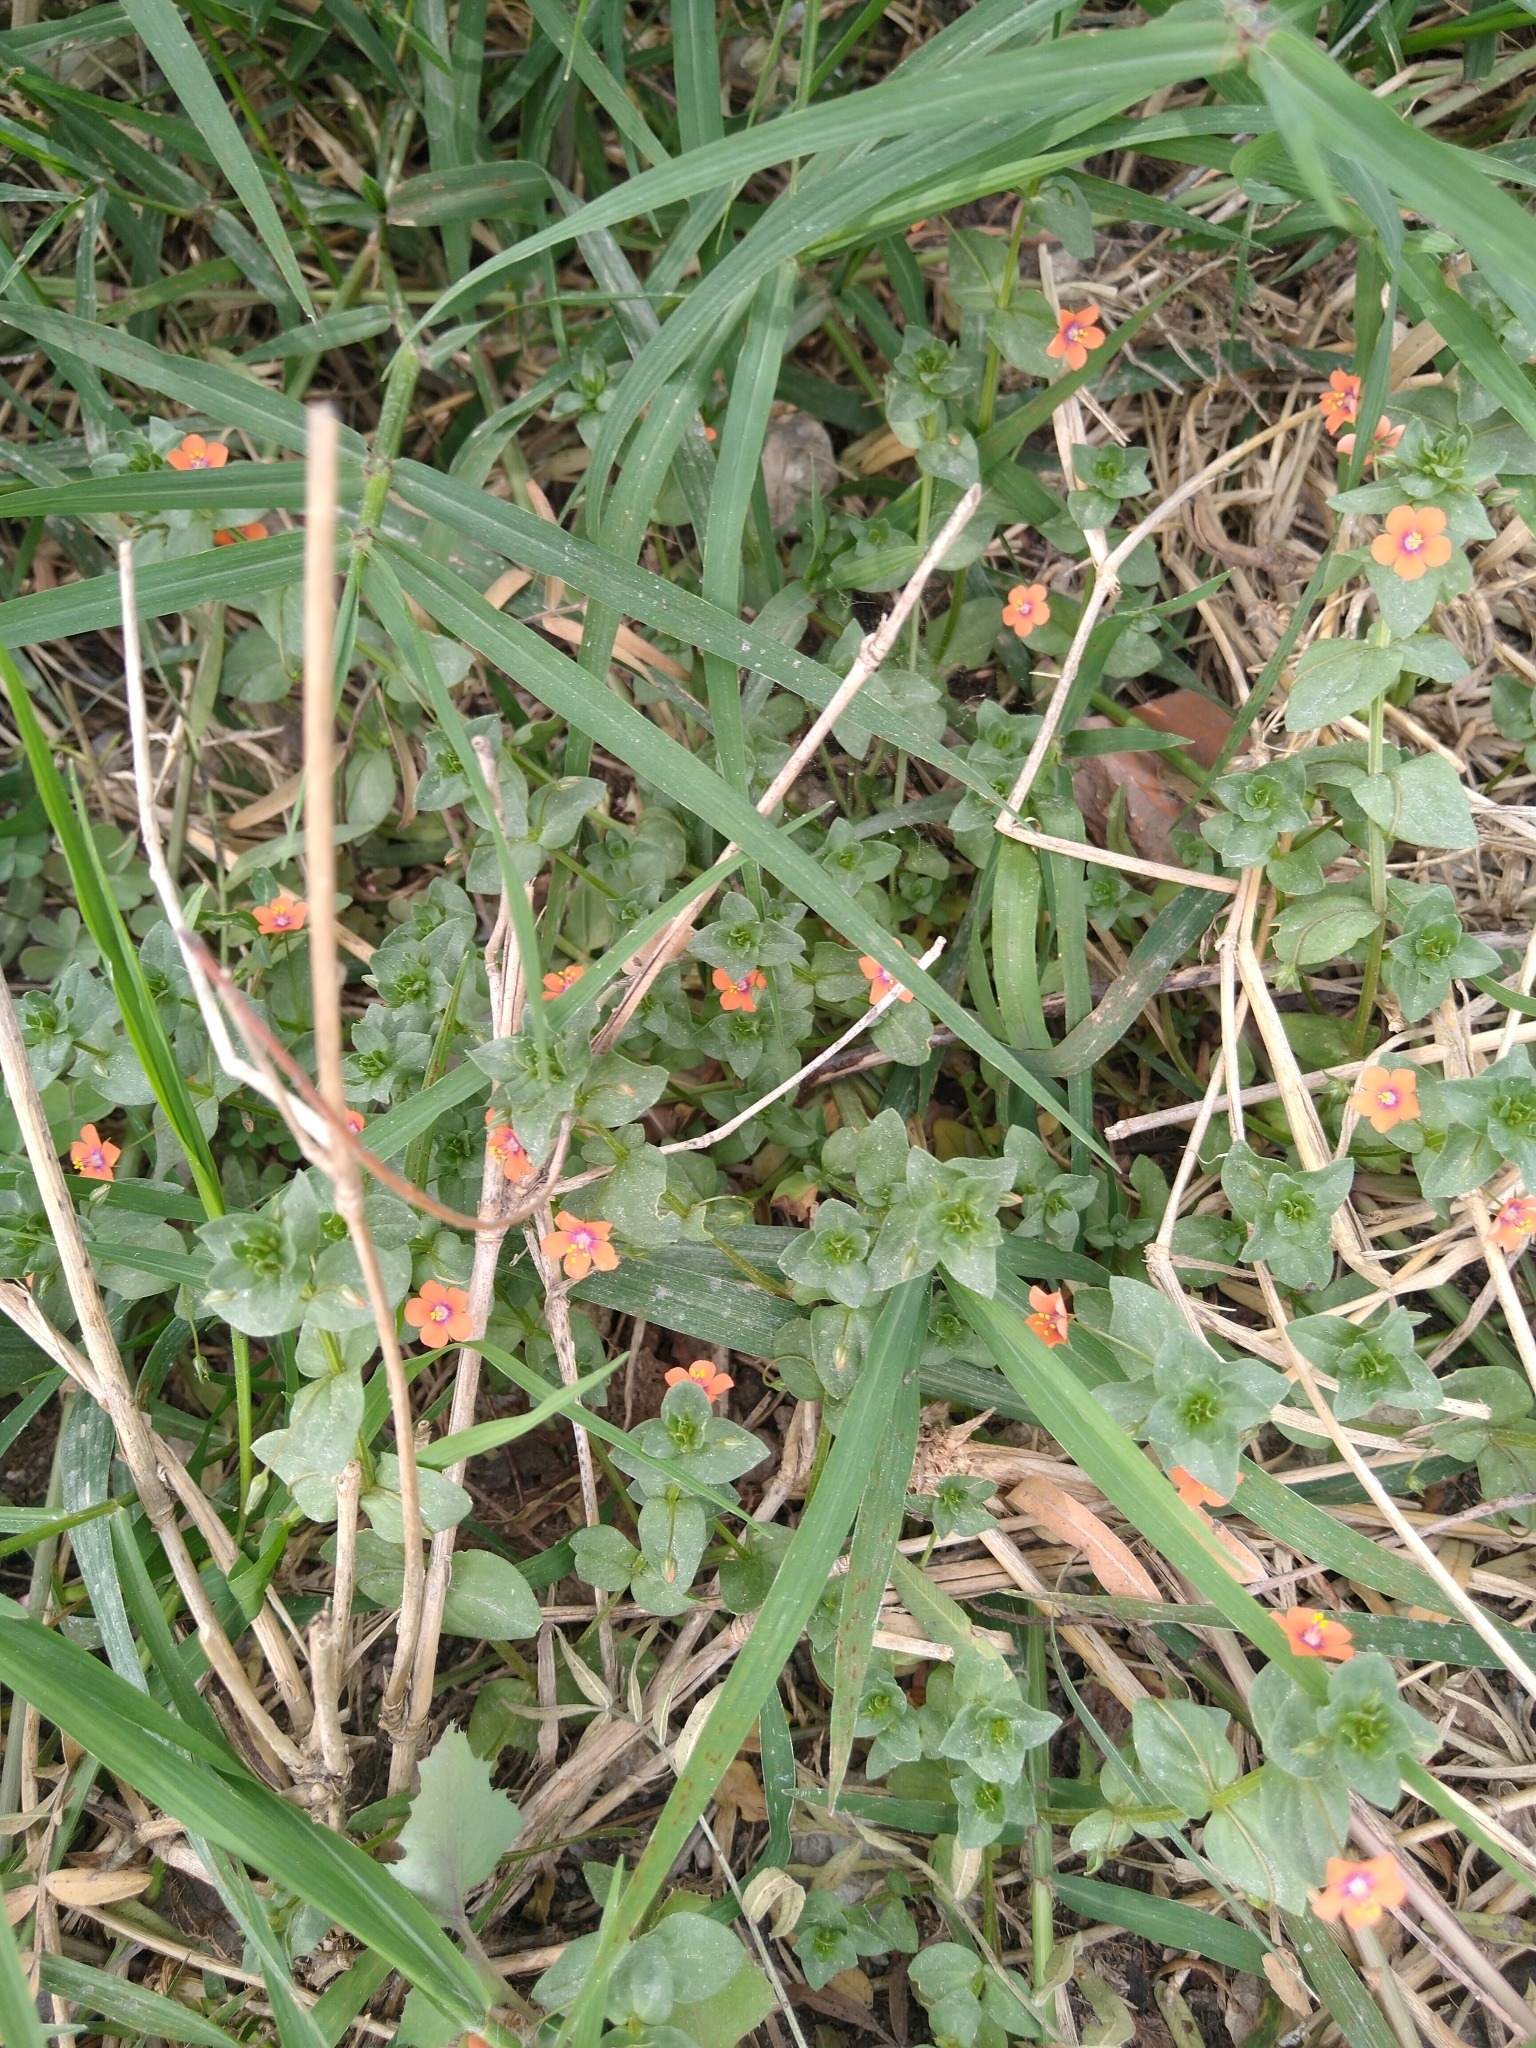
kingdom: Plantae
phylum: Tracheophyta
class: Magnoliopsida
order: Ericales
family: Primulaceae
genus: Lysimachia
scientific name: Lysimachia arvensis
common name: Scarlet pimpernel
